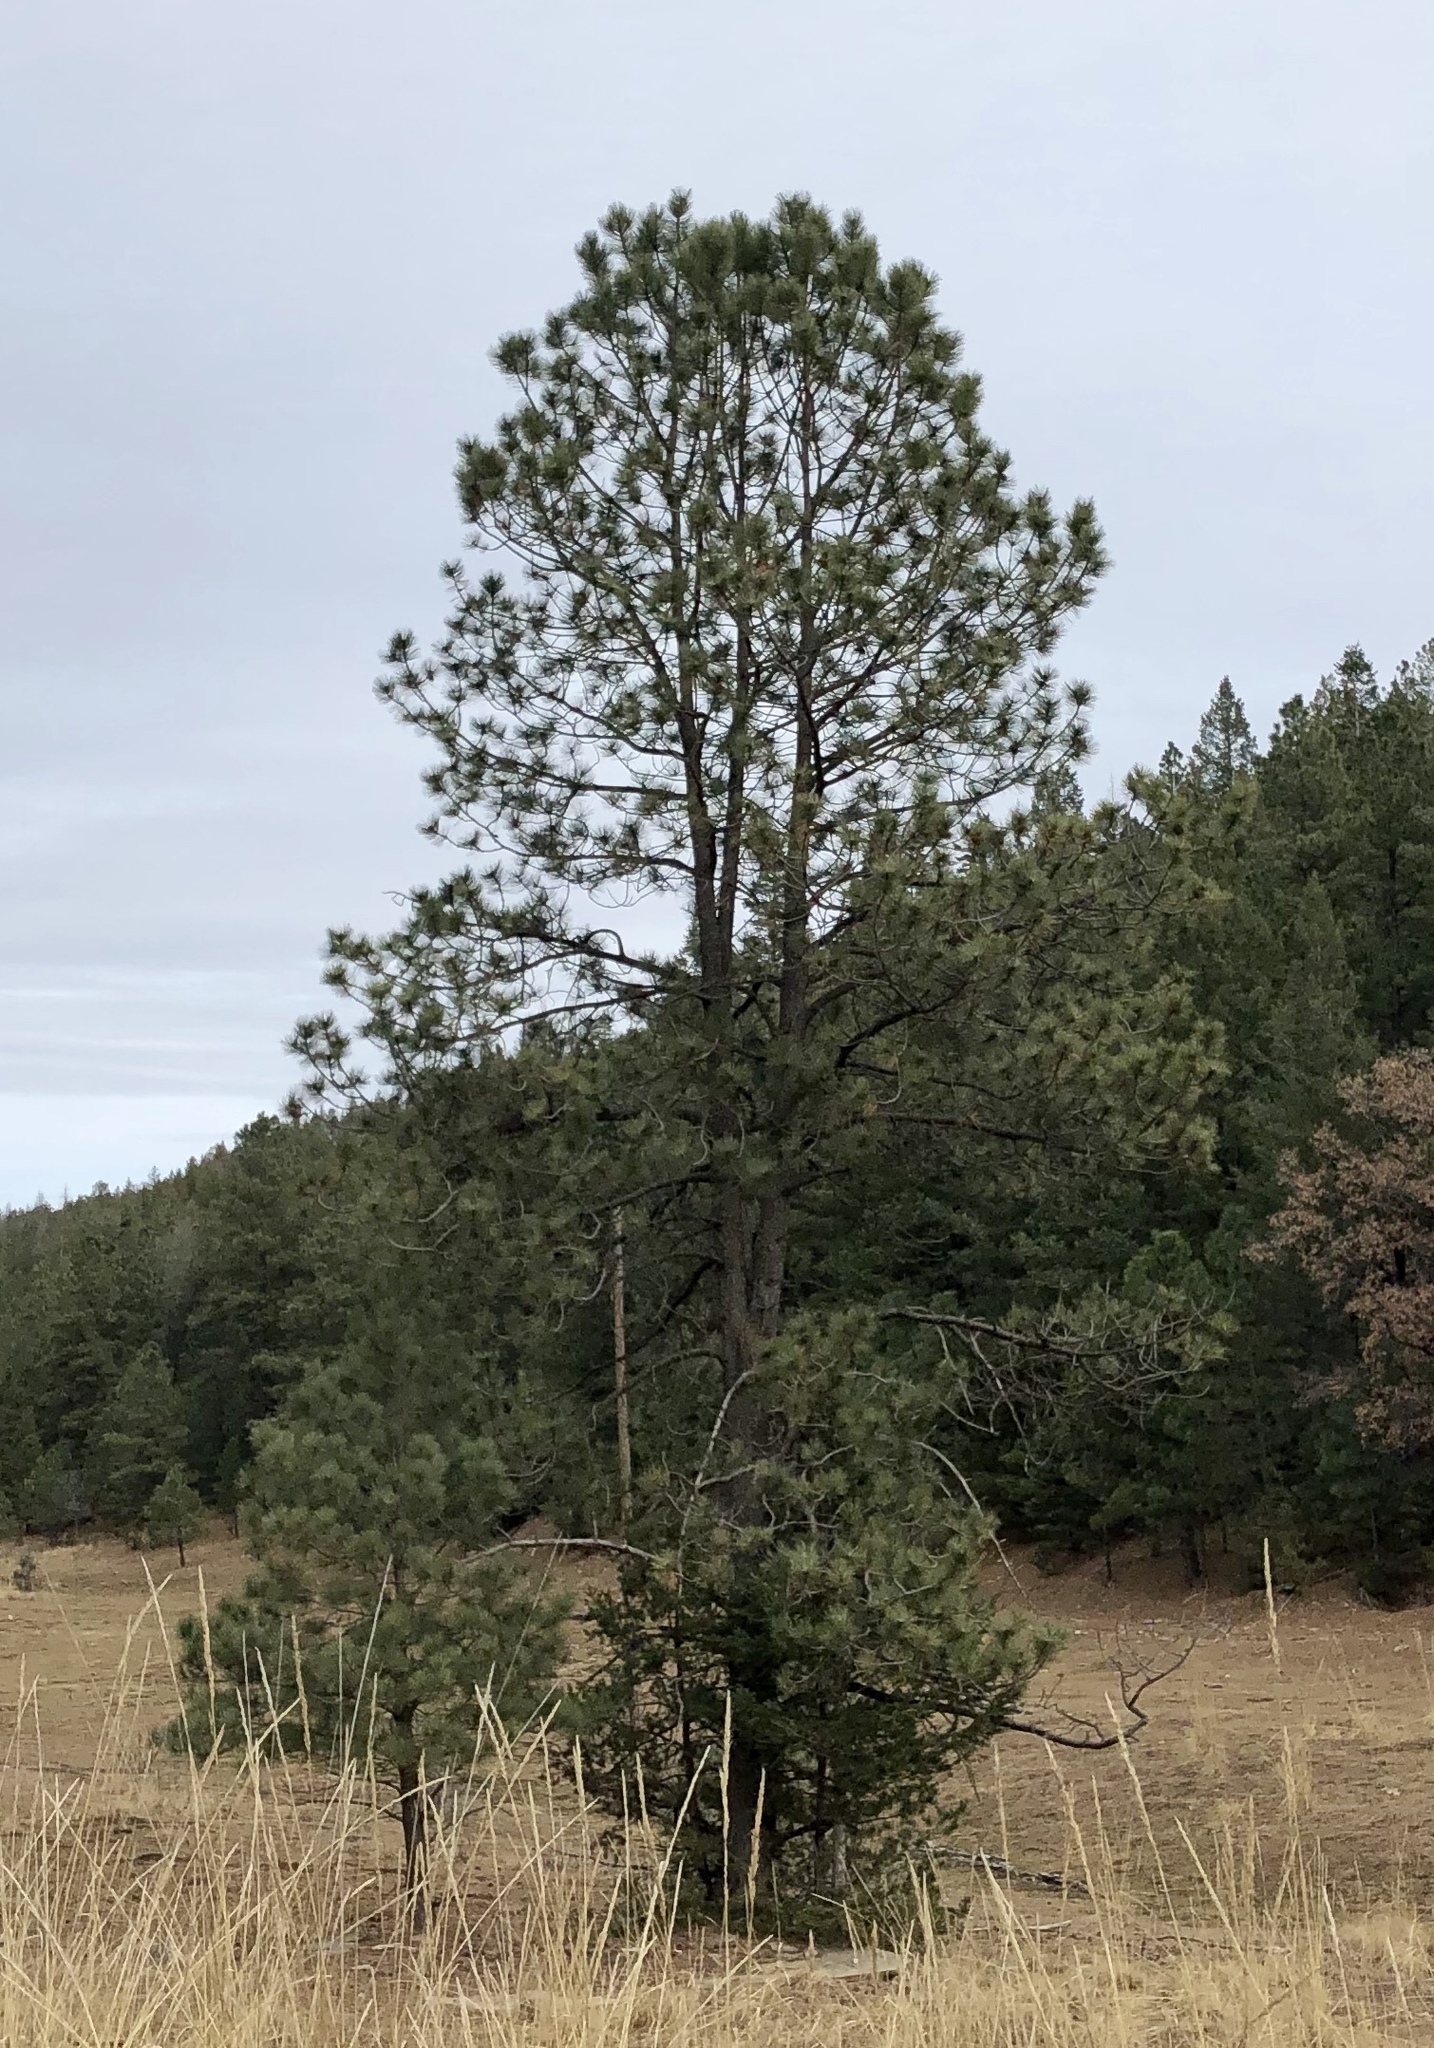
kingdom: Plantae
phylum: Tracheophyta
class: Pinopsida
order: Pinales
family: Pinaceae
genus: Pinus
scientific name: Pinus ponderosa
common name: Western yellow-pine
